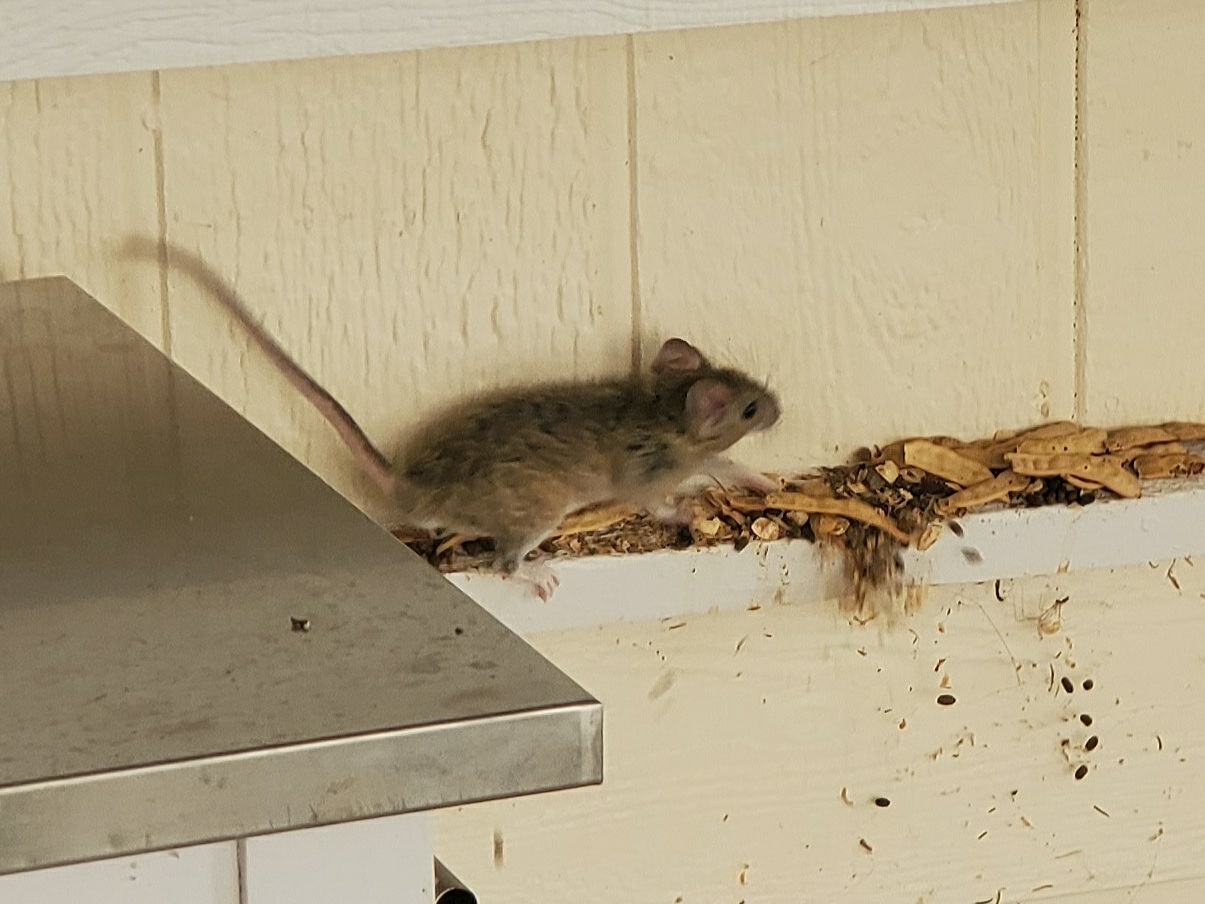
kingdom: Animalia
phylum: Chordata
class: Mammalia
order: Rodentia
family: Muridae
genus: Rattus
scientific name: Rattus rattus
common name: Black rat
